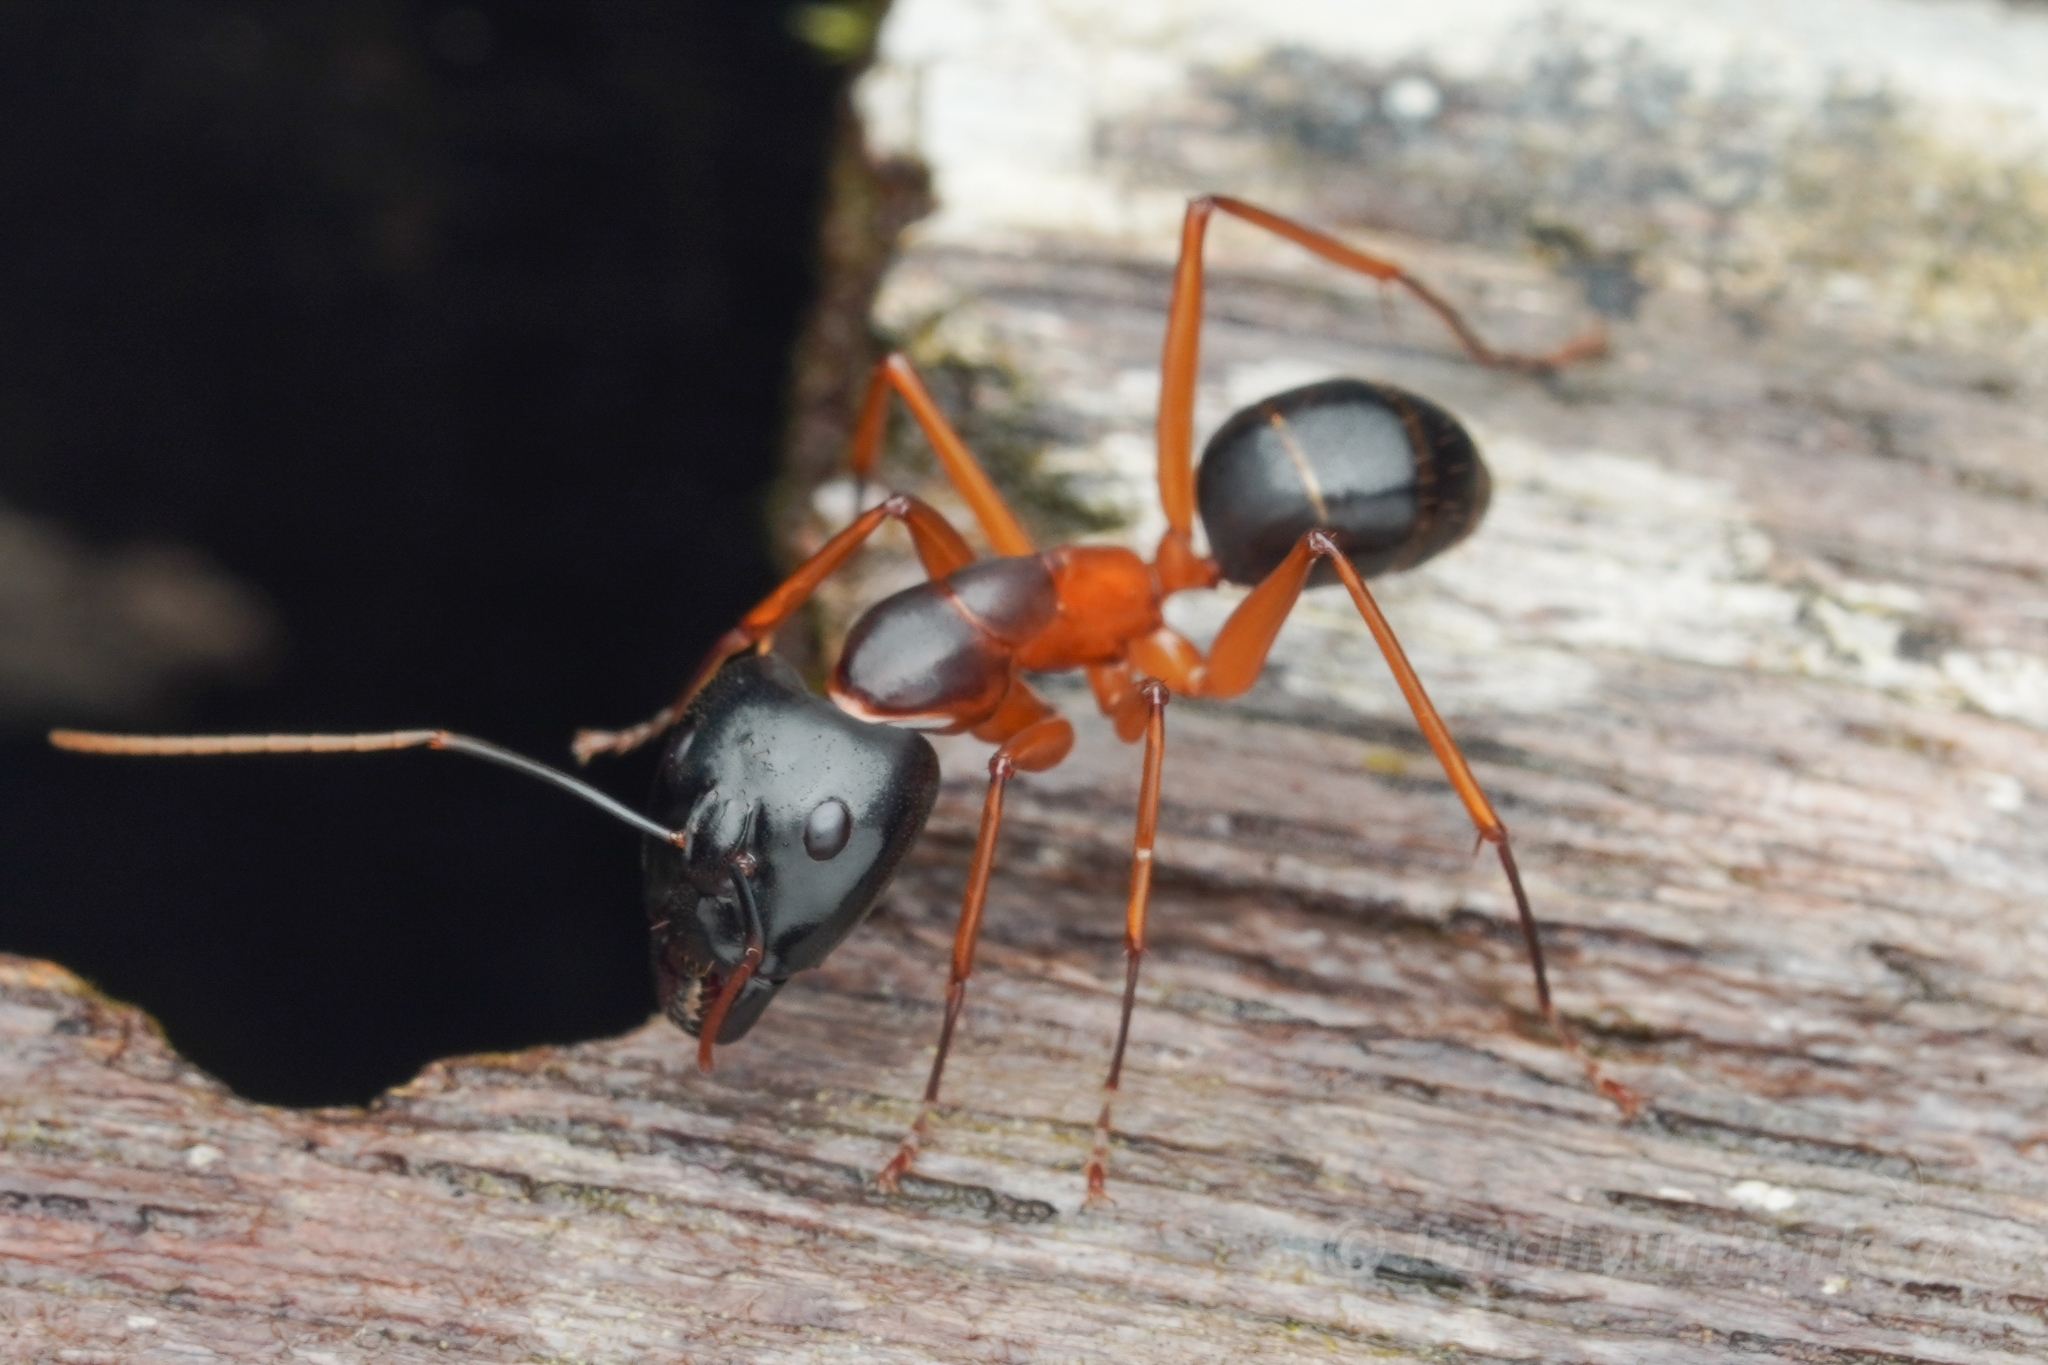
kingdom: Animalia
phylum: Arthropoda
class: Insecta
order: Hymenoptera
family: Formicidae
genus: Camponotus
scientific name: Camponotus festinus
